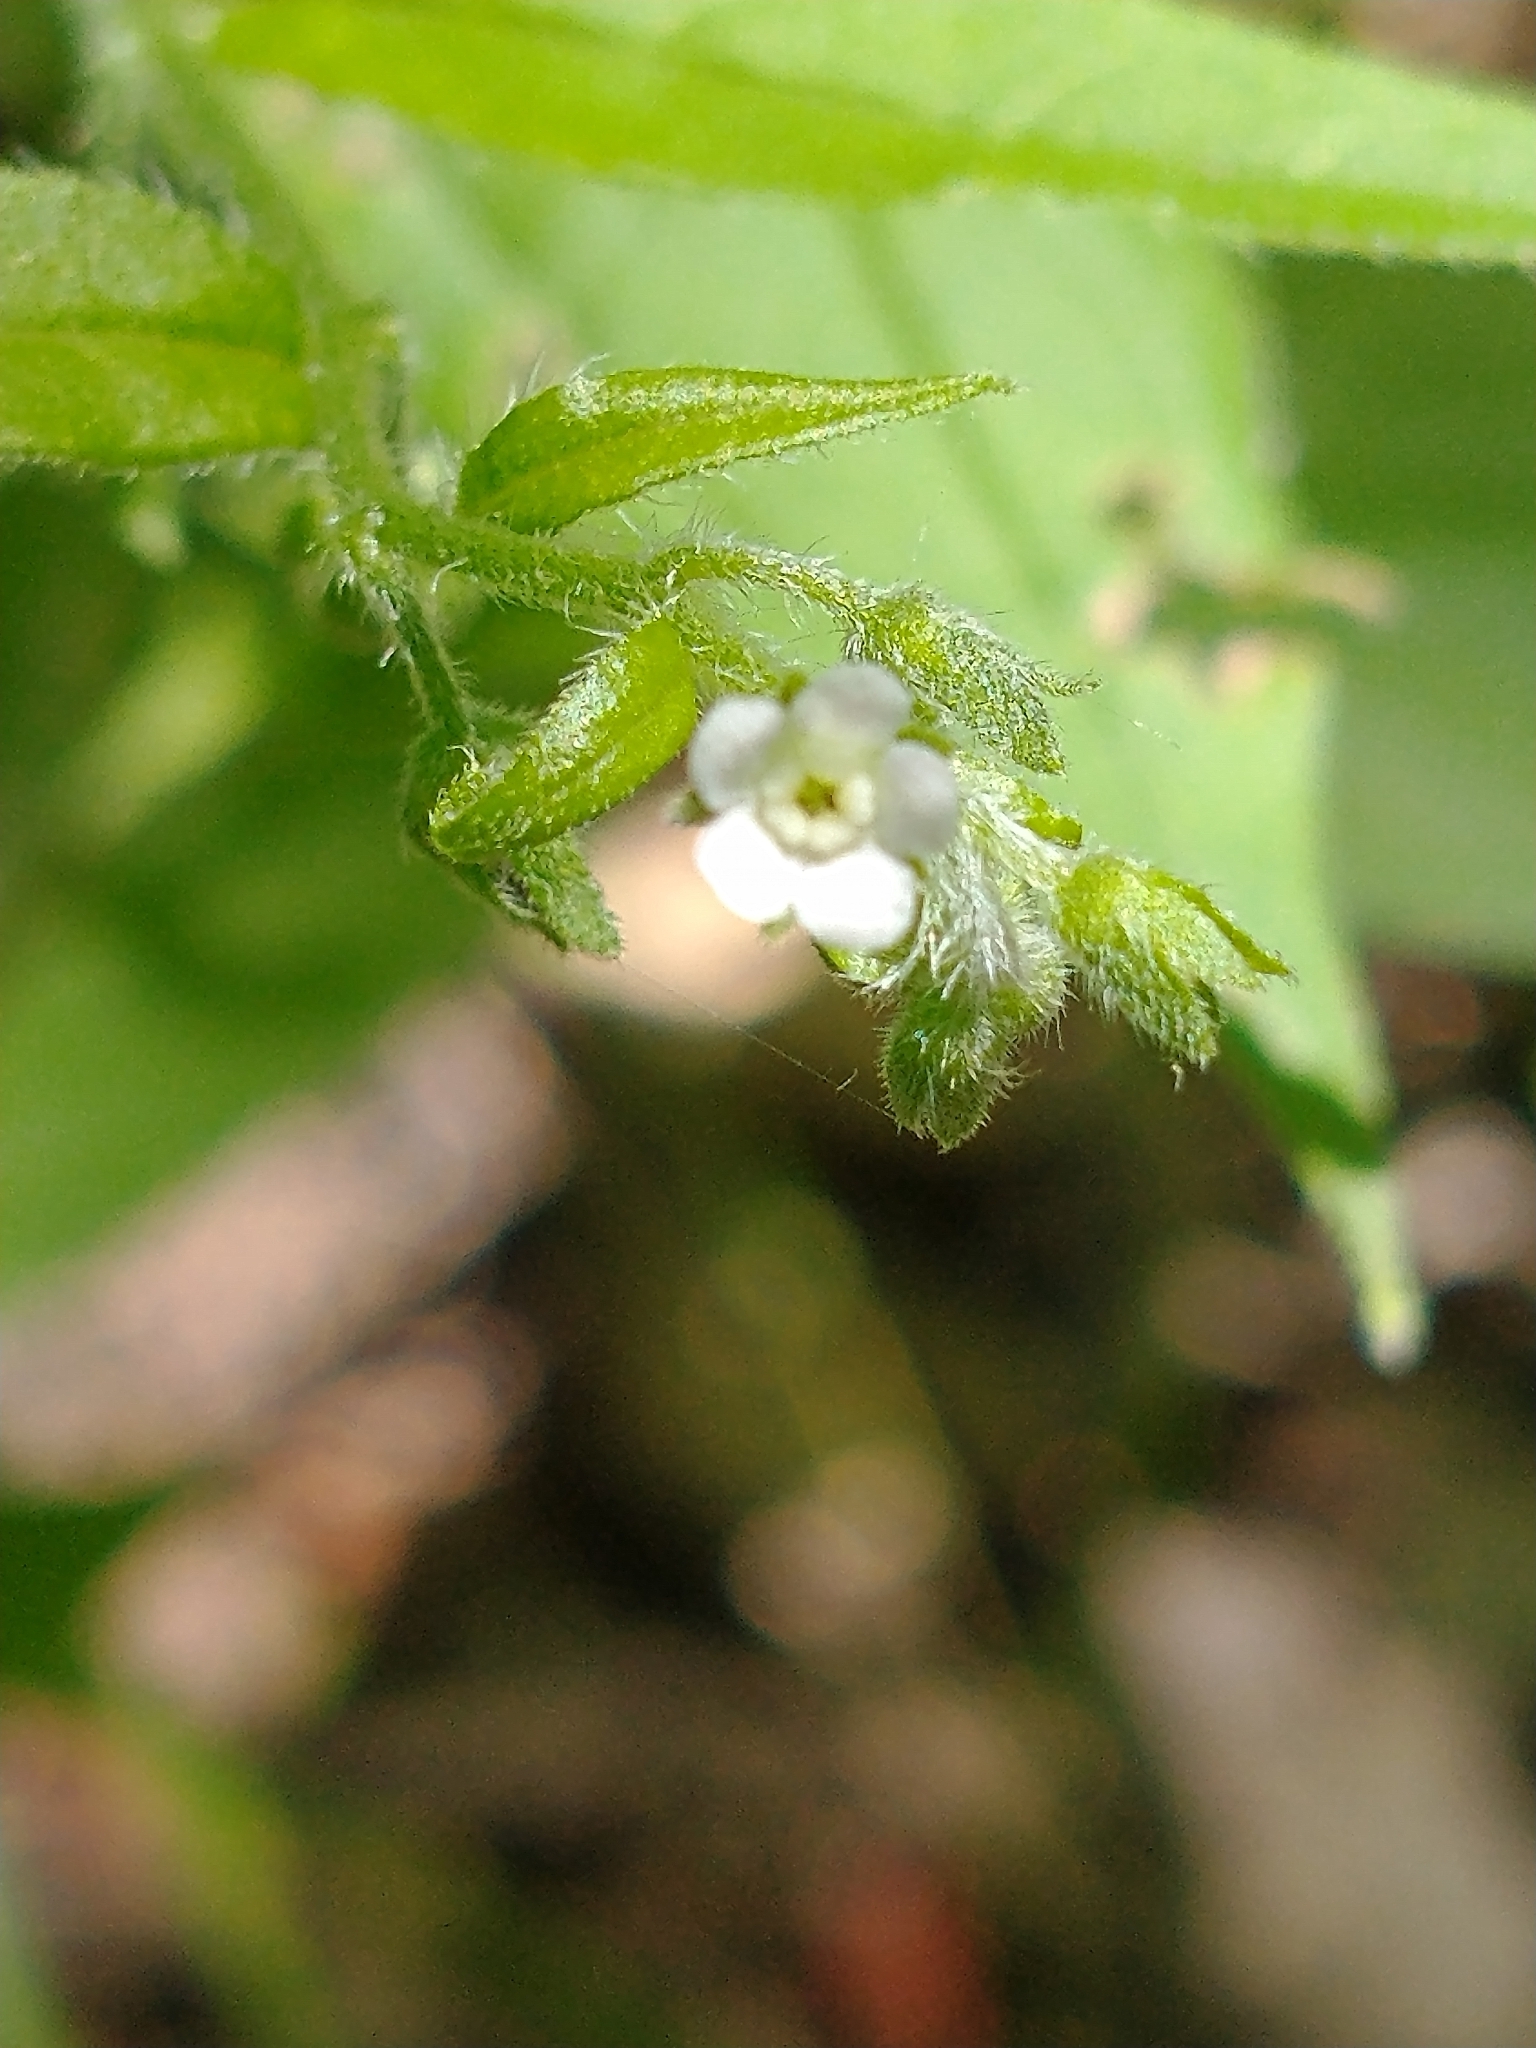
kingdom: Plantae
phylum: Tracheophyta
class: Magnoliopsida
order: Boraginales
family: Boraginaceae
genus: Hackelia
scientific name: Hackelia virginiana
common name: Beggar's-lice
